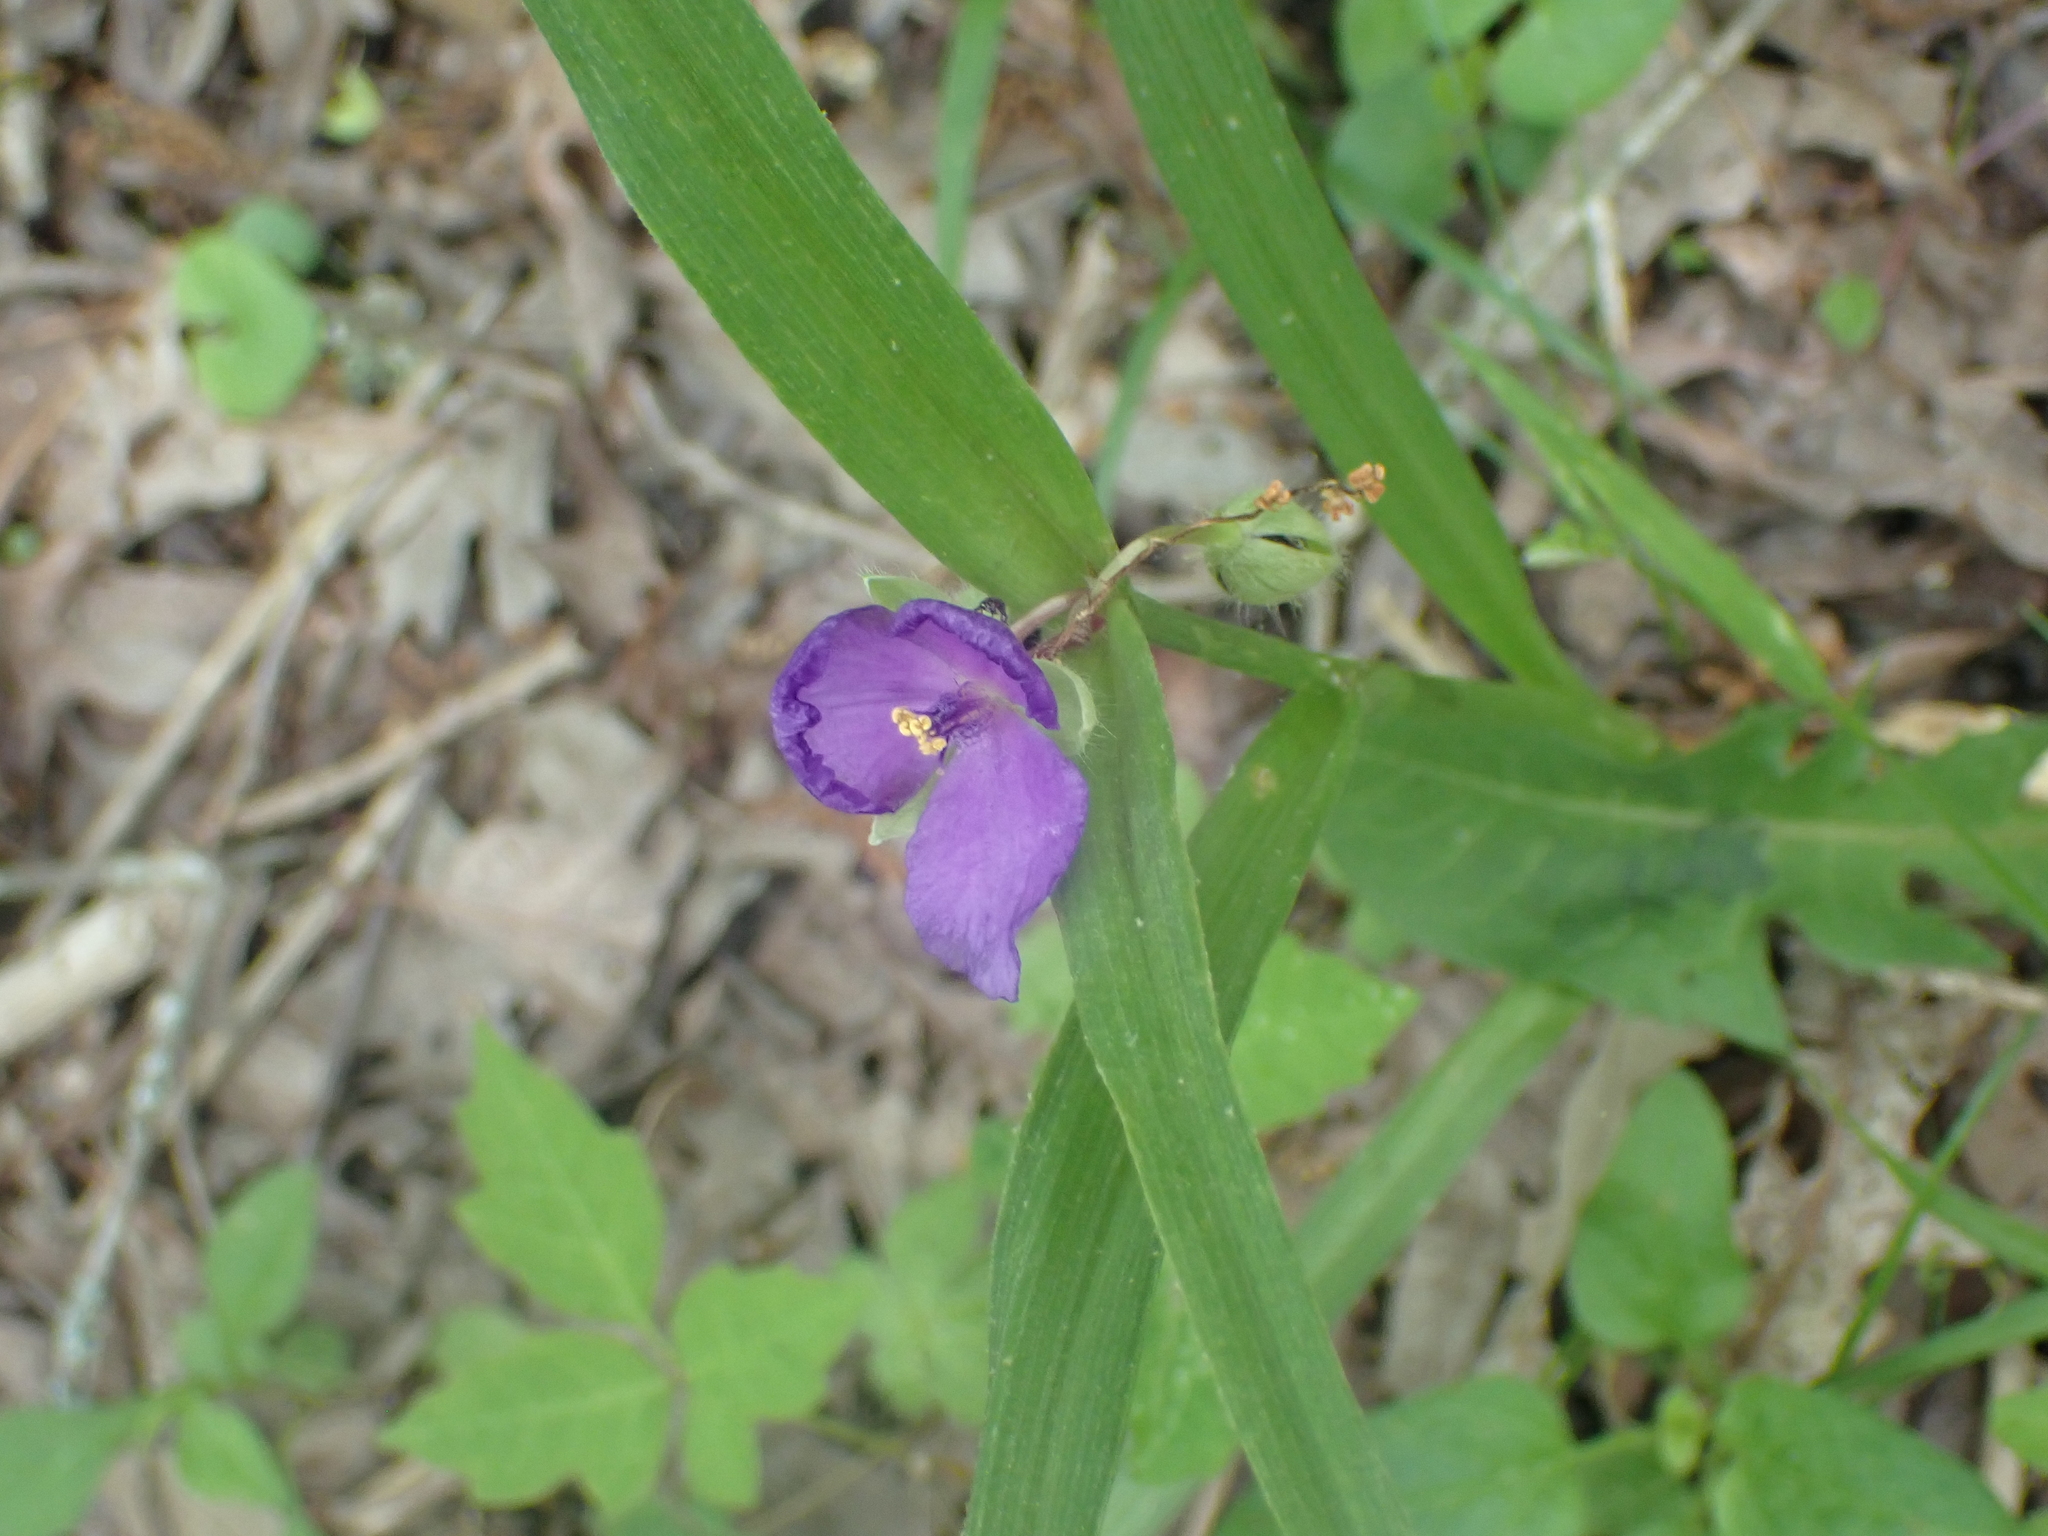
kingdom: Plantae
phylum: Tracheophyta
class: Liliopsida
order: Commelinales
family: Commelinaceae
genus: Tradescantia
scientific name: Tradescantia virginiana
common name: Spiderwort
